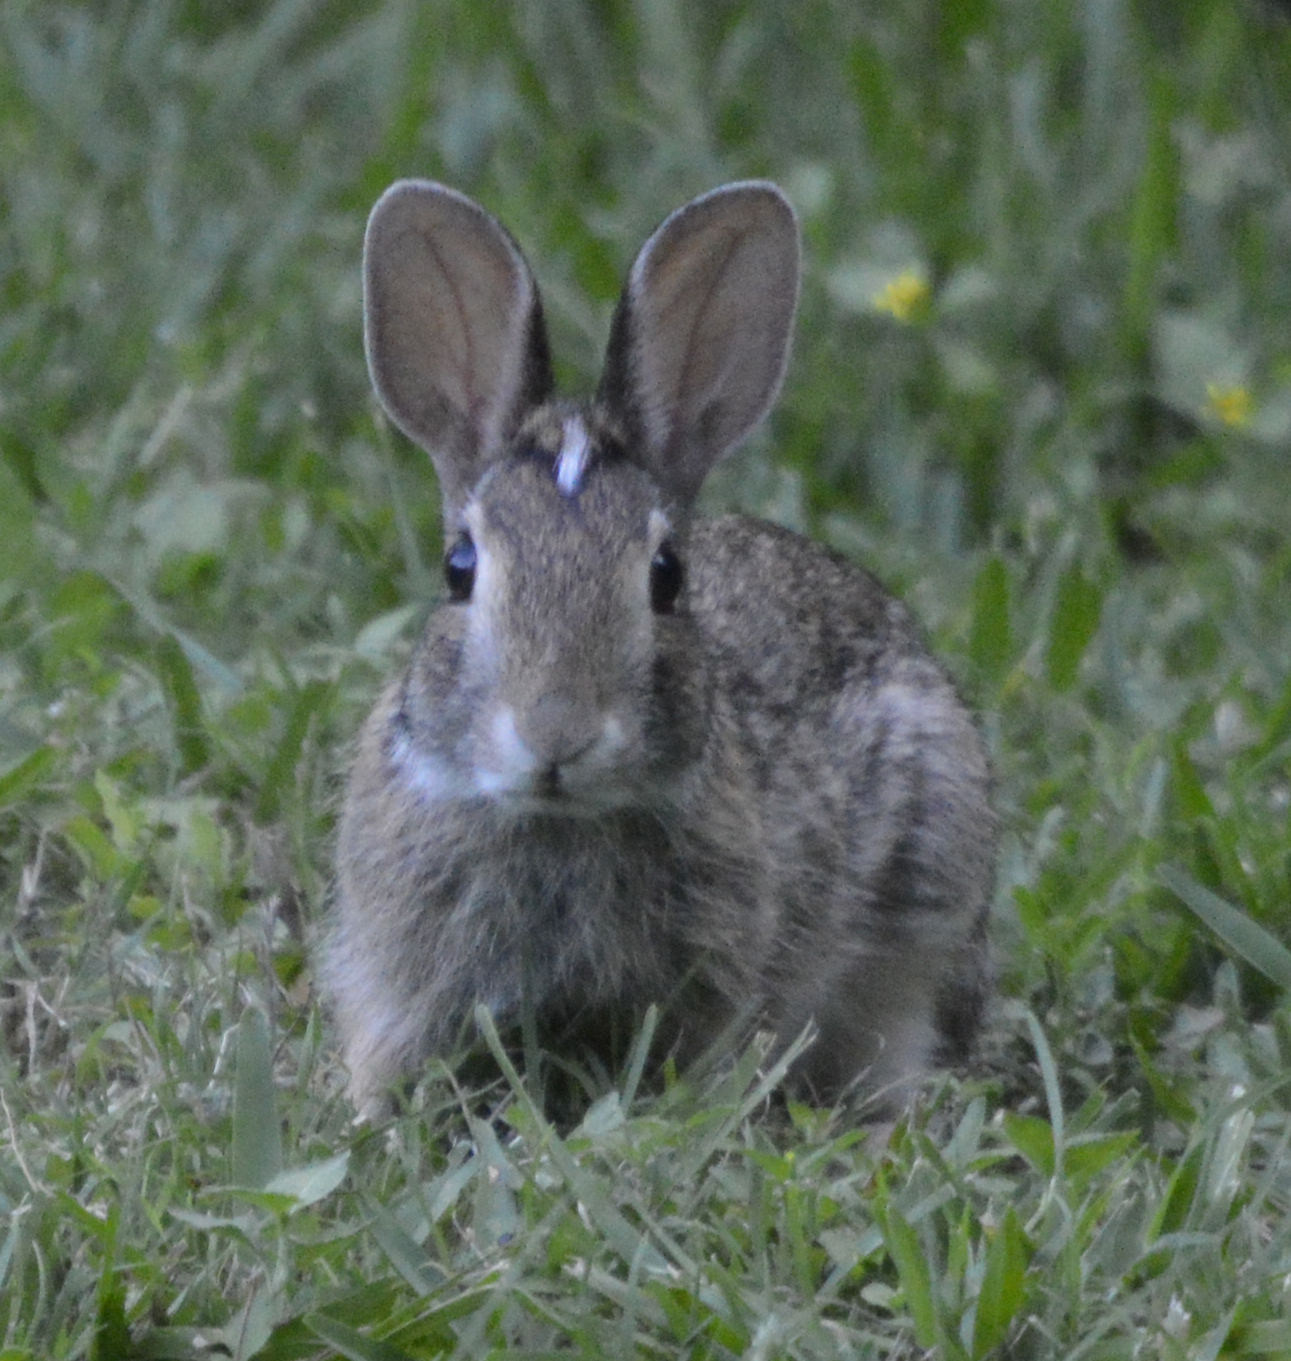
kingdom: Animalia
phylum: Chordata
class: Mammalia
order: Lagomorpha
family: Leporidae
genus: Sylvilagus
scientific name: Sylvilagus aquaticus
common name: Swamp rabbit
